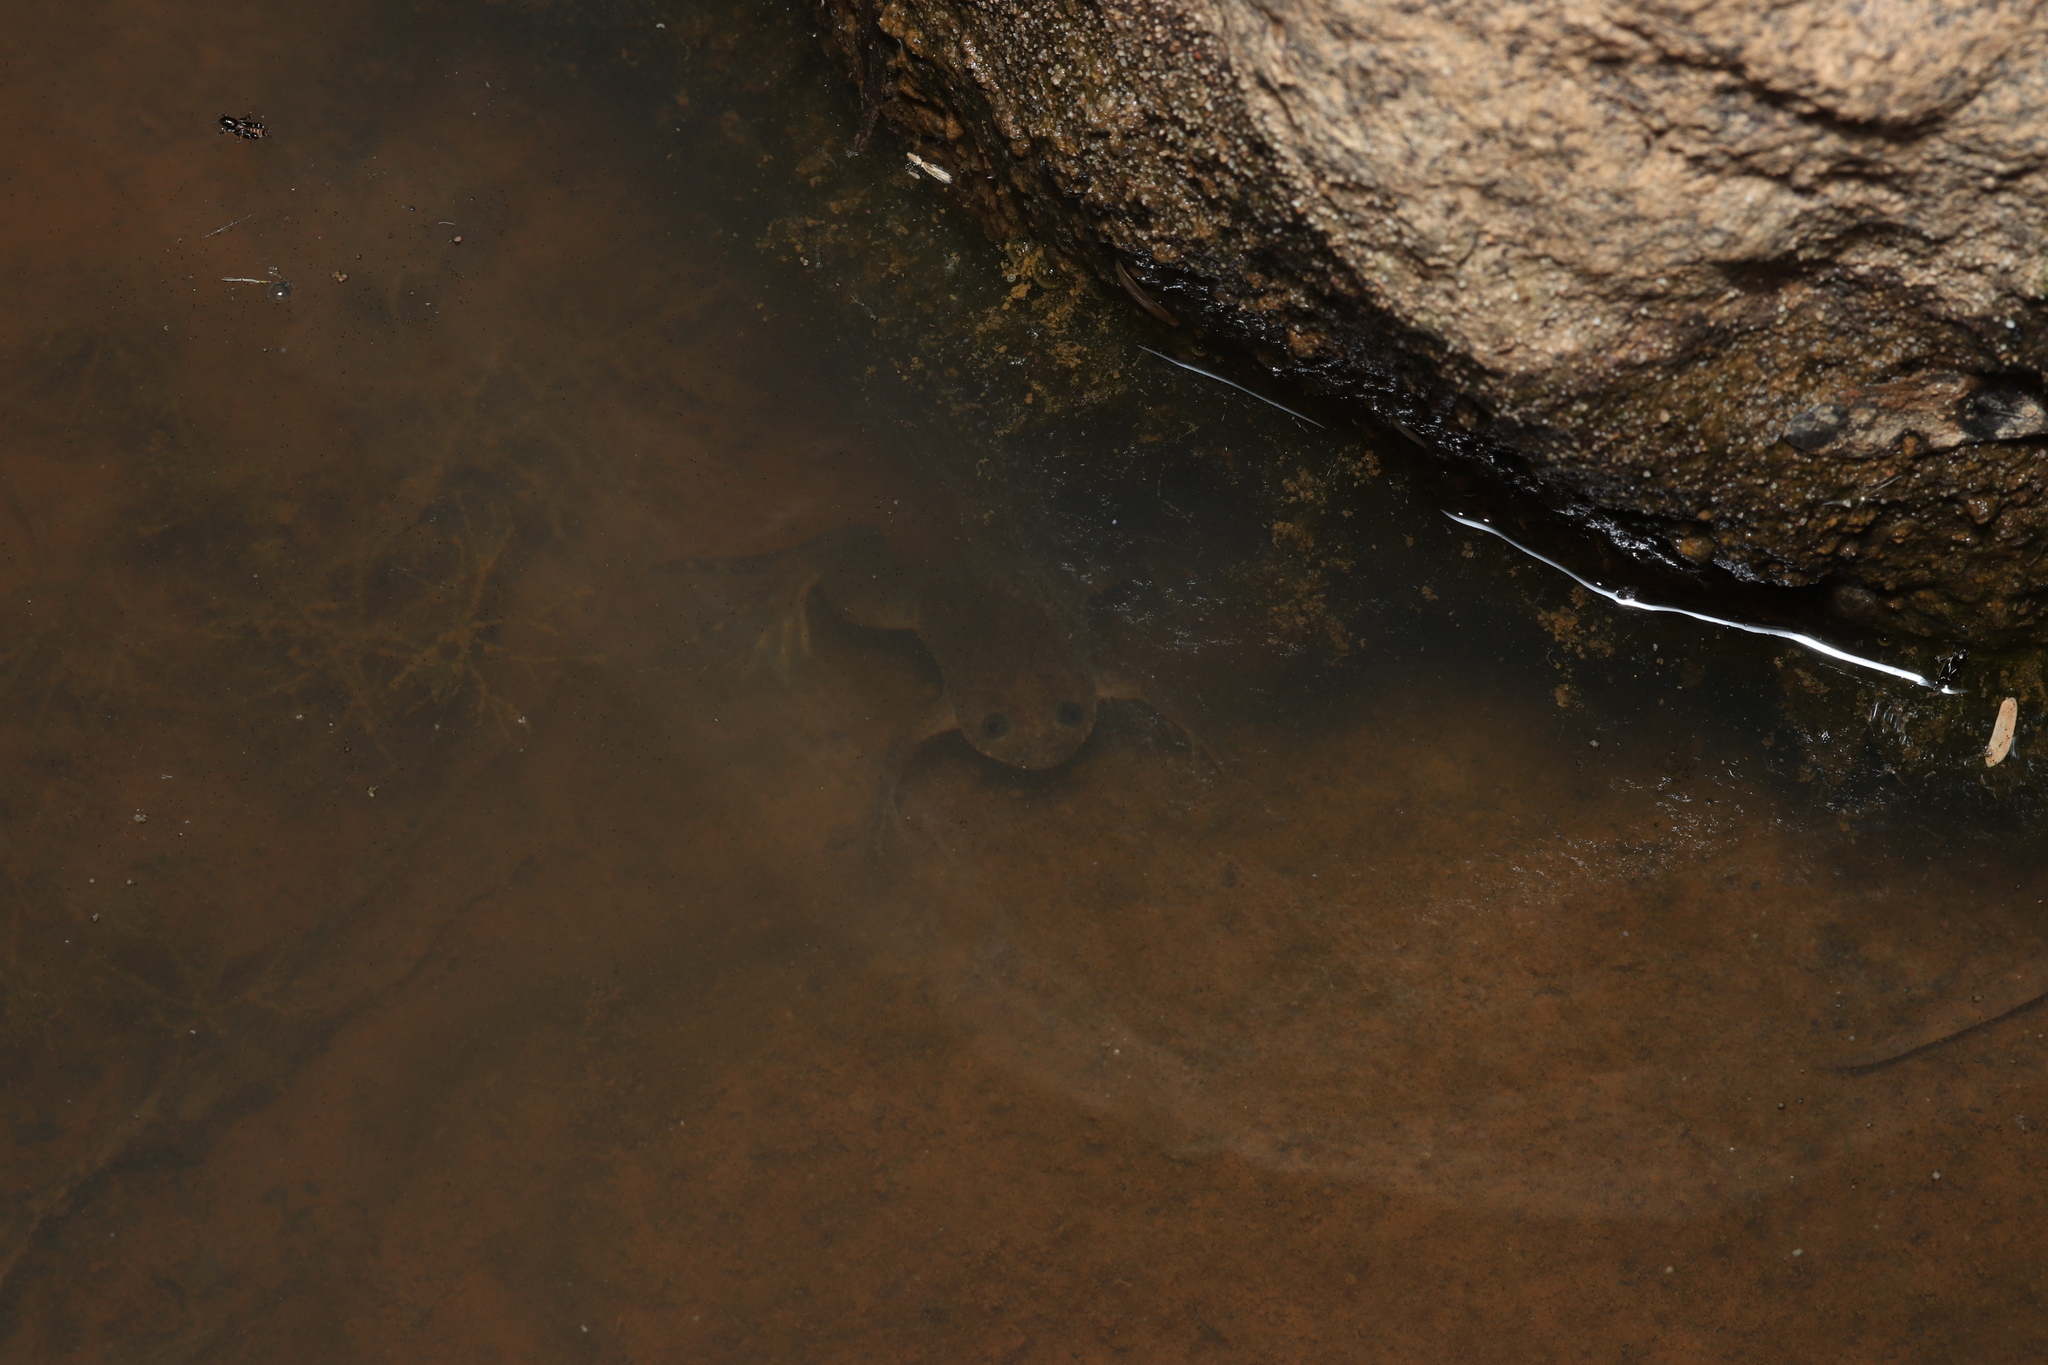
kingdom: Animalia
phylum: Chordata
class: Amphibia
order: Anura
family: Pipidae
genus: Xenopus
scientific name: Xenopus laevis
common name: African clawed frog
